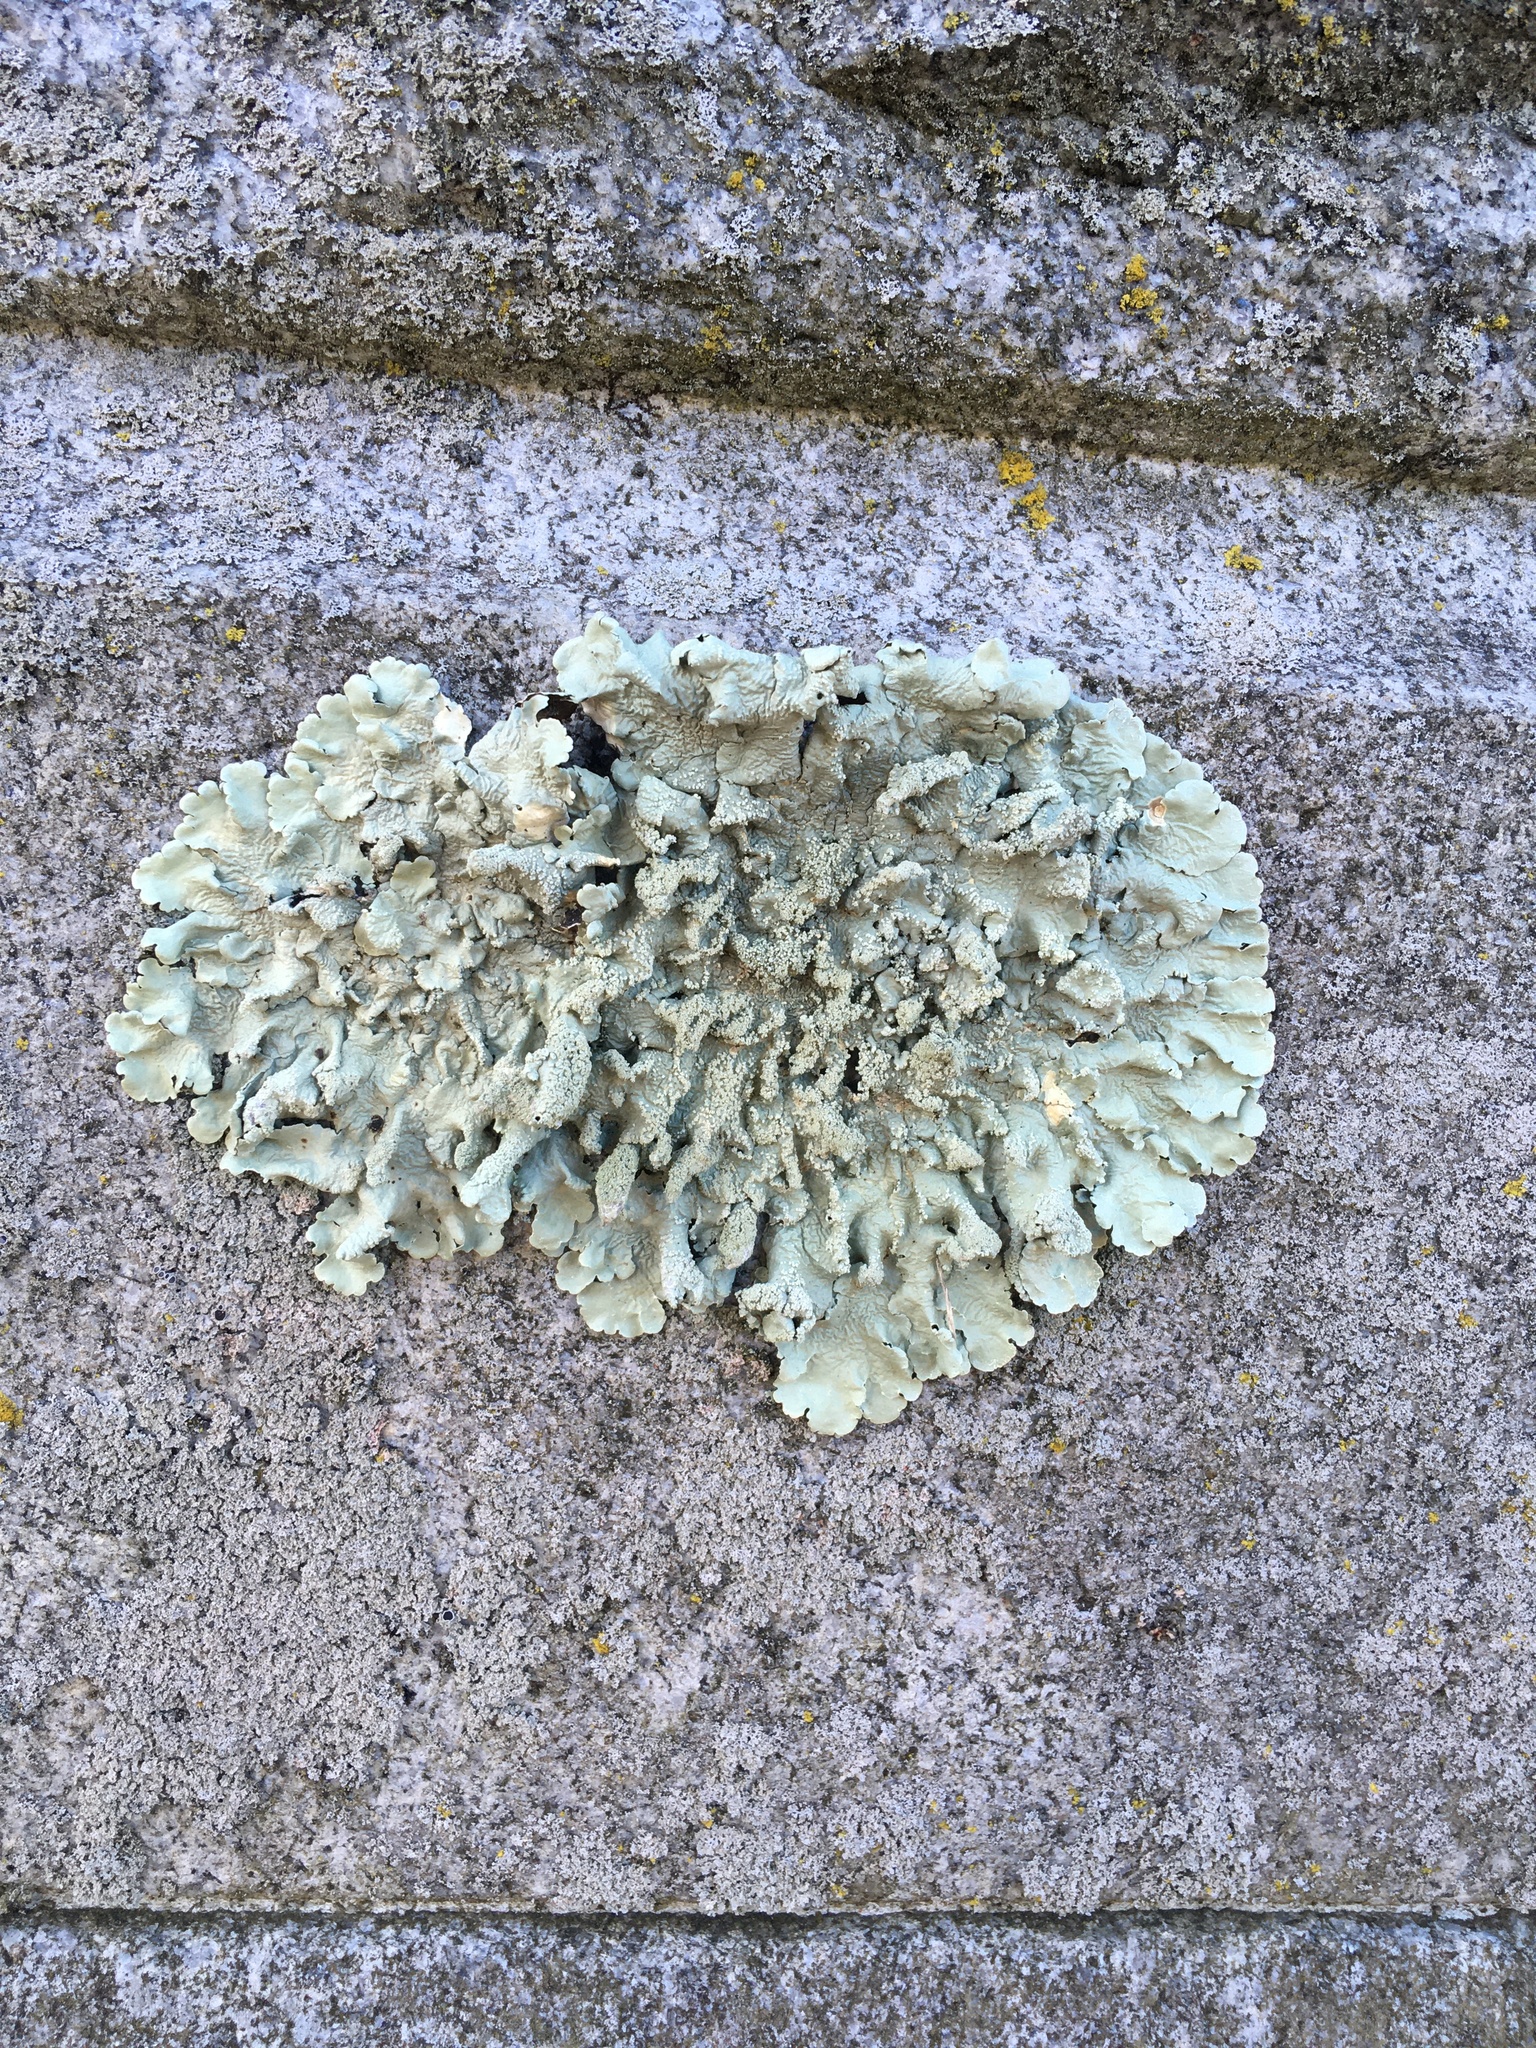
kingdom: Fungi
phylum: Ascomycota
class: Lecanoromycetes
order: Lecanorales
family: Parmeliaceae
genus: Flavoparmelia
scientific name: Flavoparmelia caperata
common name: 40-mile per hour lichen
